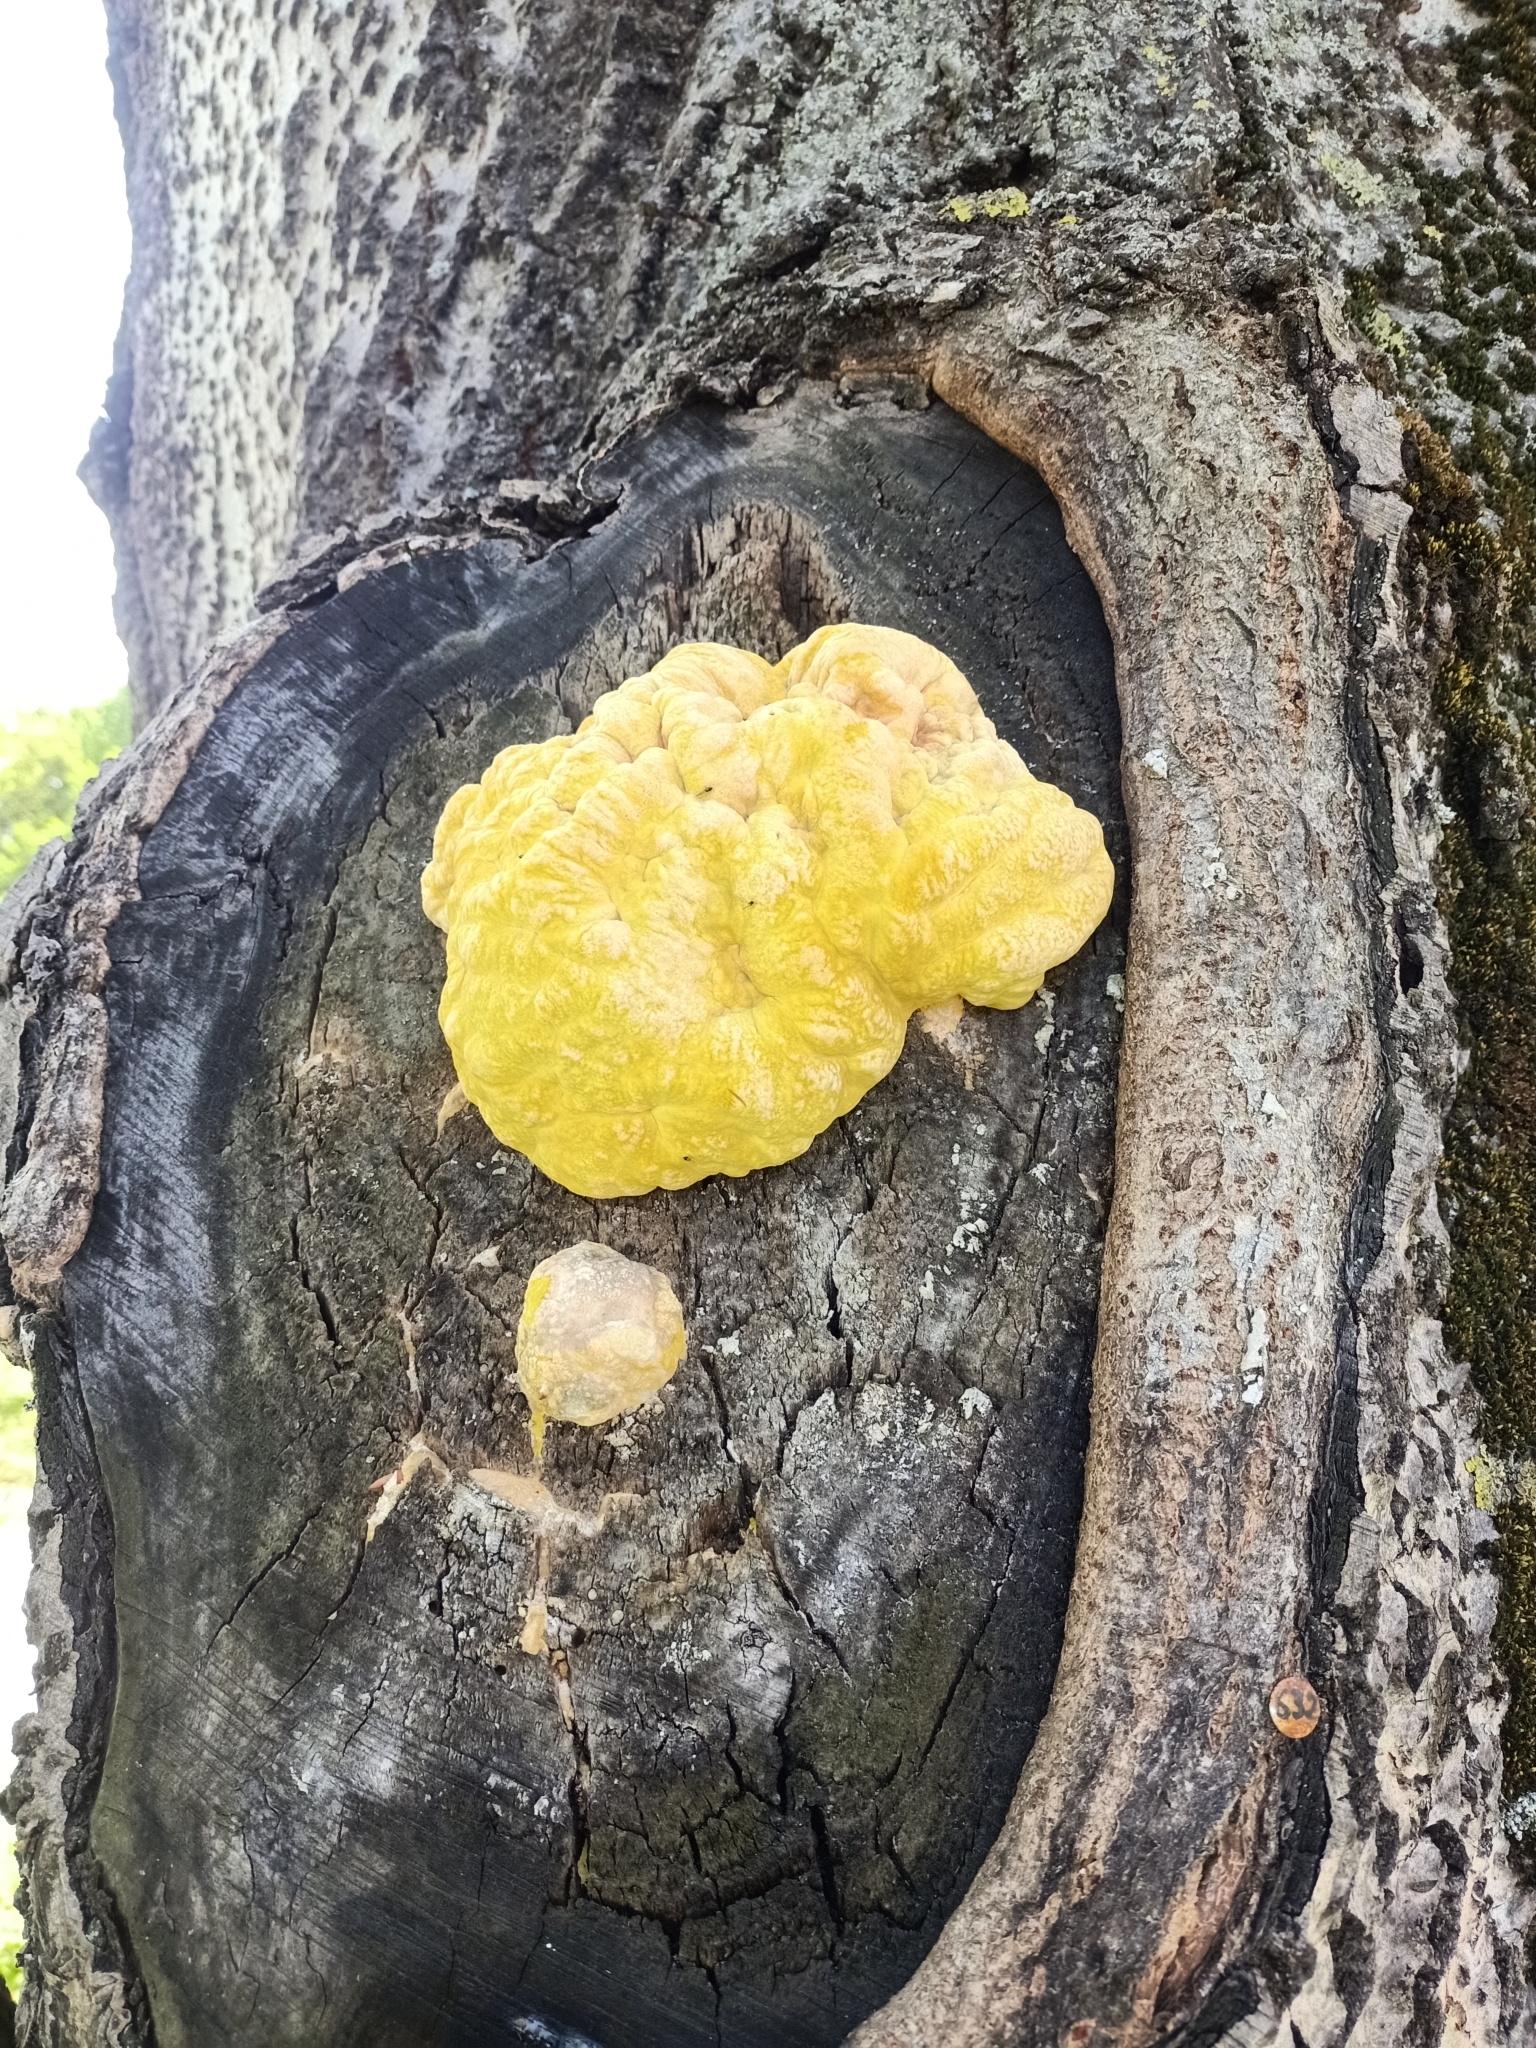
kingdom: Fungi
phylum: Basidiomycota
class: Agaricomycetes
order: Polyporales
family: Laetiporaceae
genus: Laetiporus
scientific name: Laetiporus sulphureus
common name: Chicken of the woods
